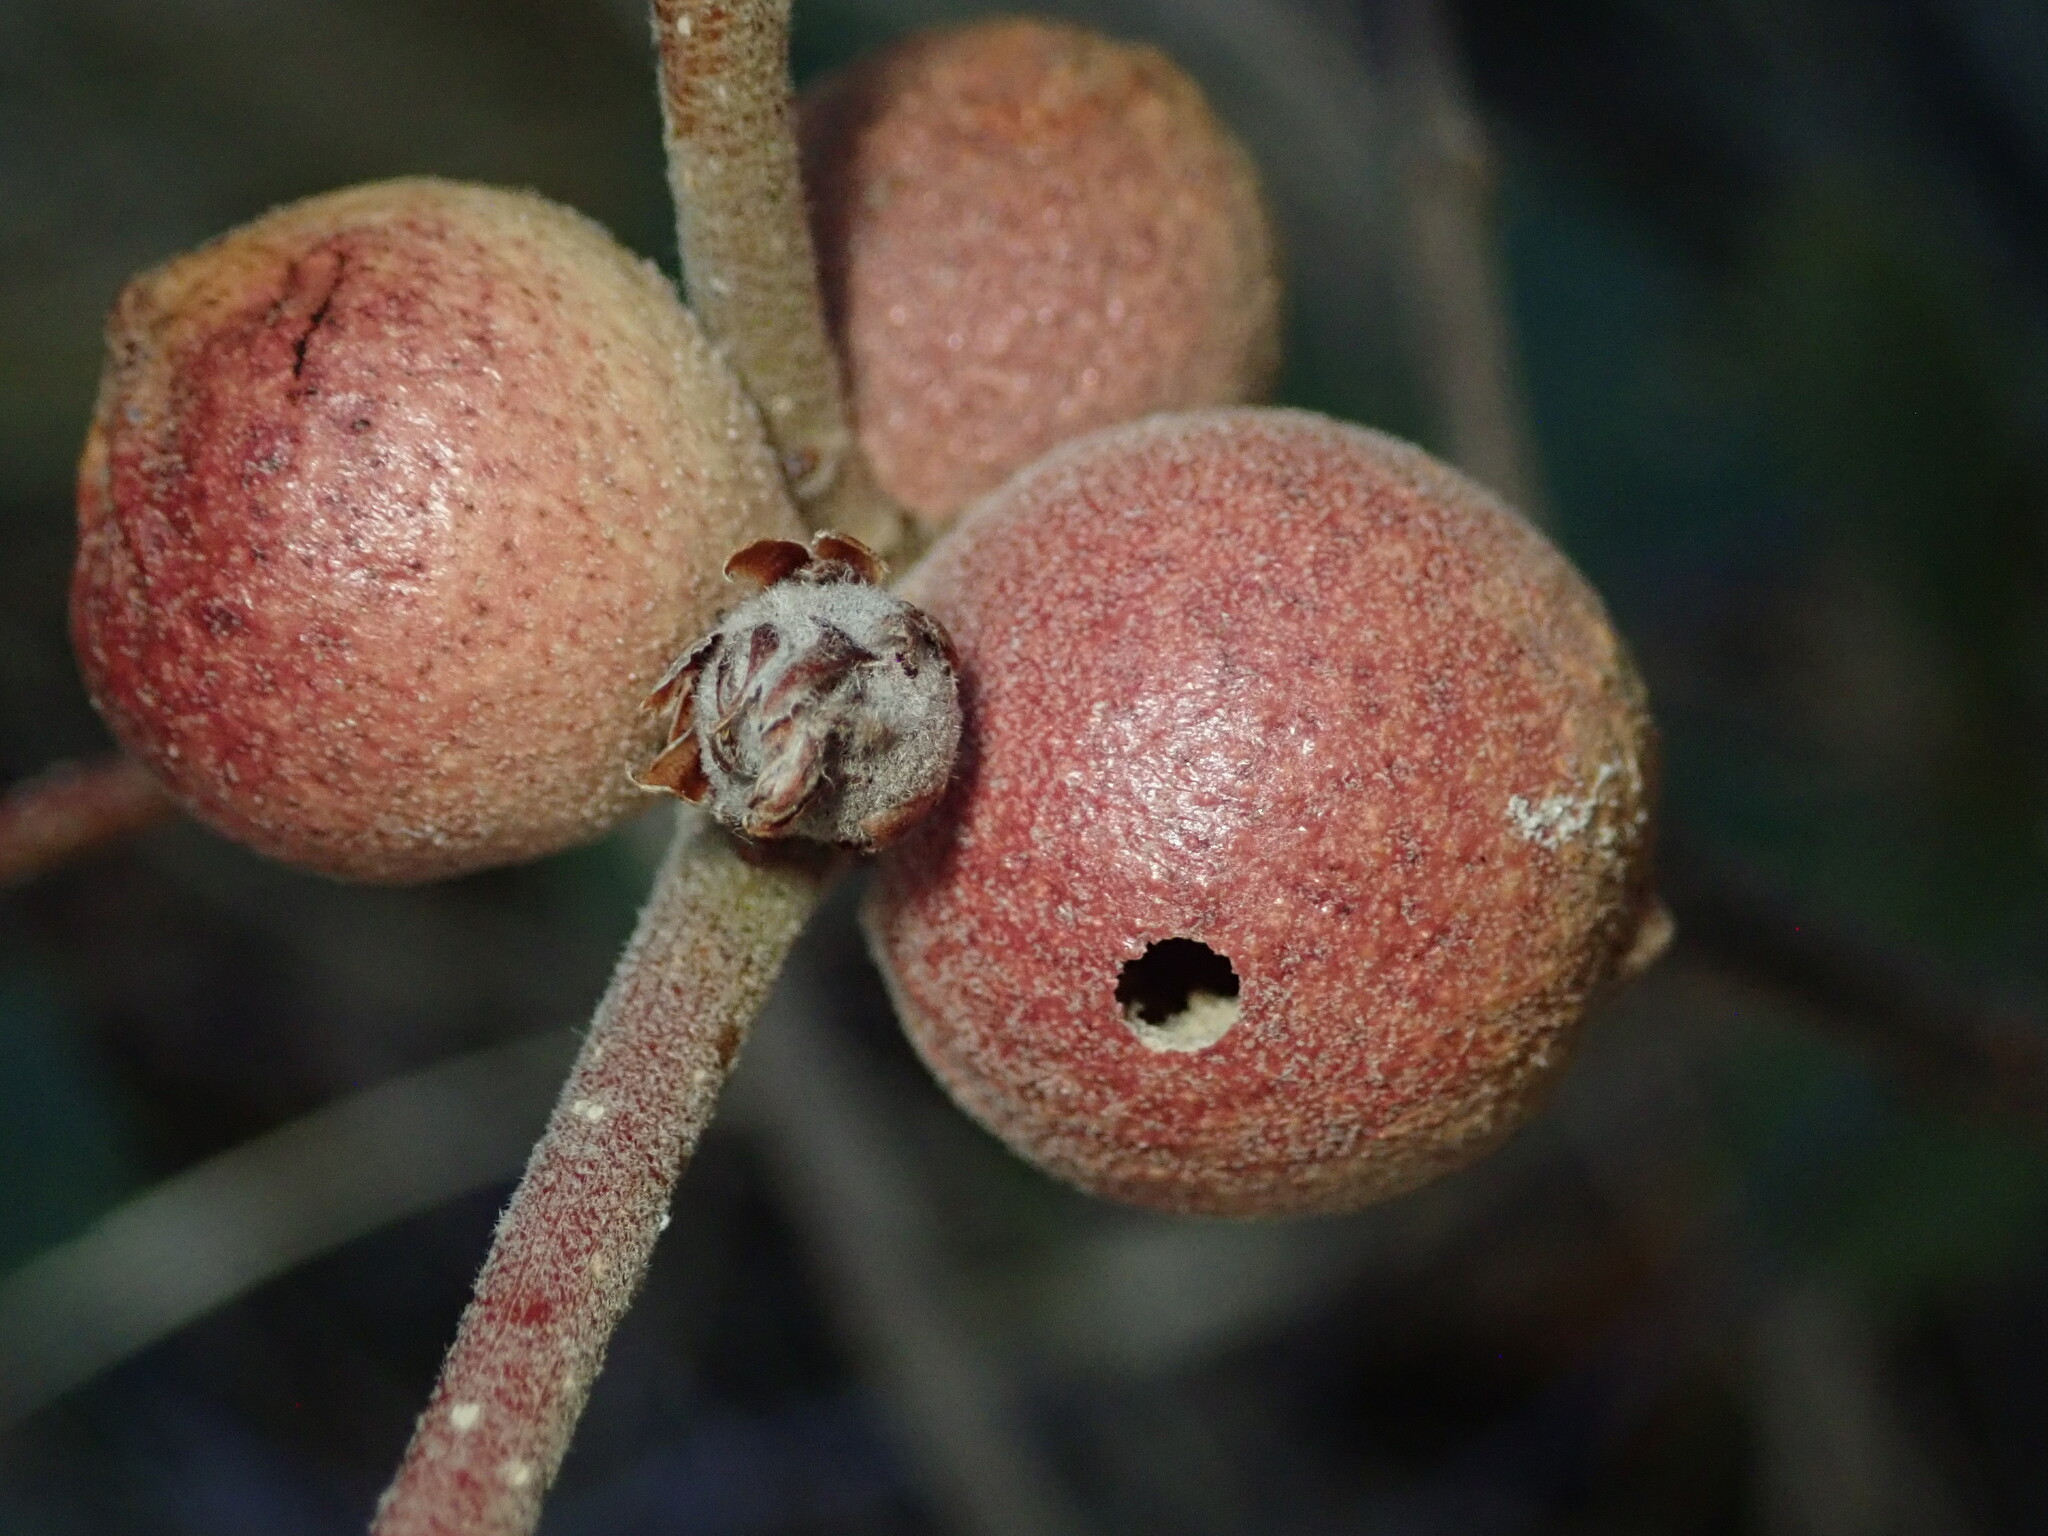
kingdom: Animalia
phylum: Arthropoda
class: Insecta
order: Hymenoptera
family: Cynipidae
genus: Disholcaspis
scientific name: Disholcaspis
